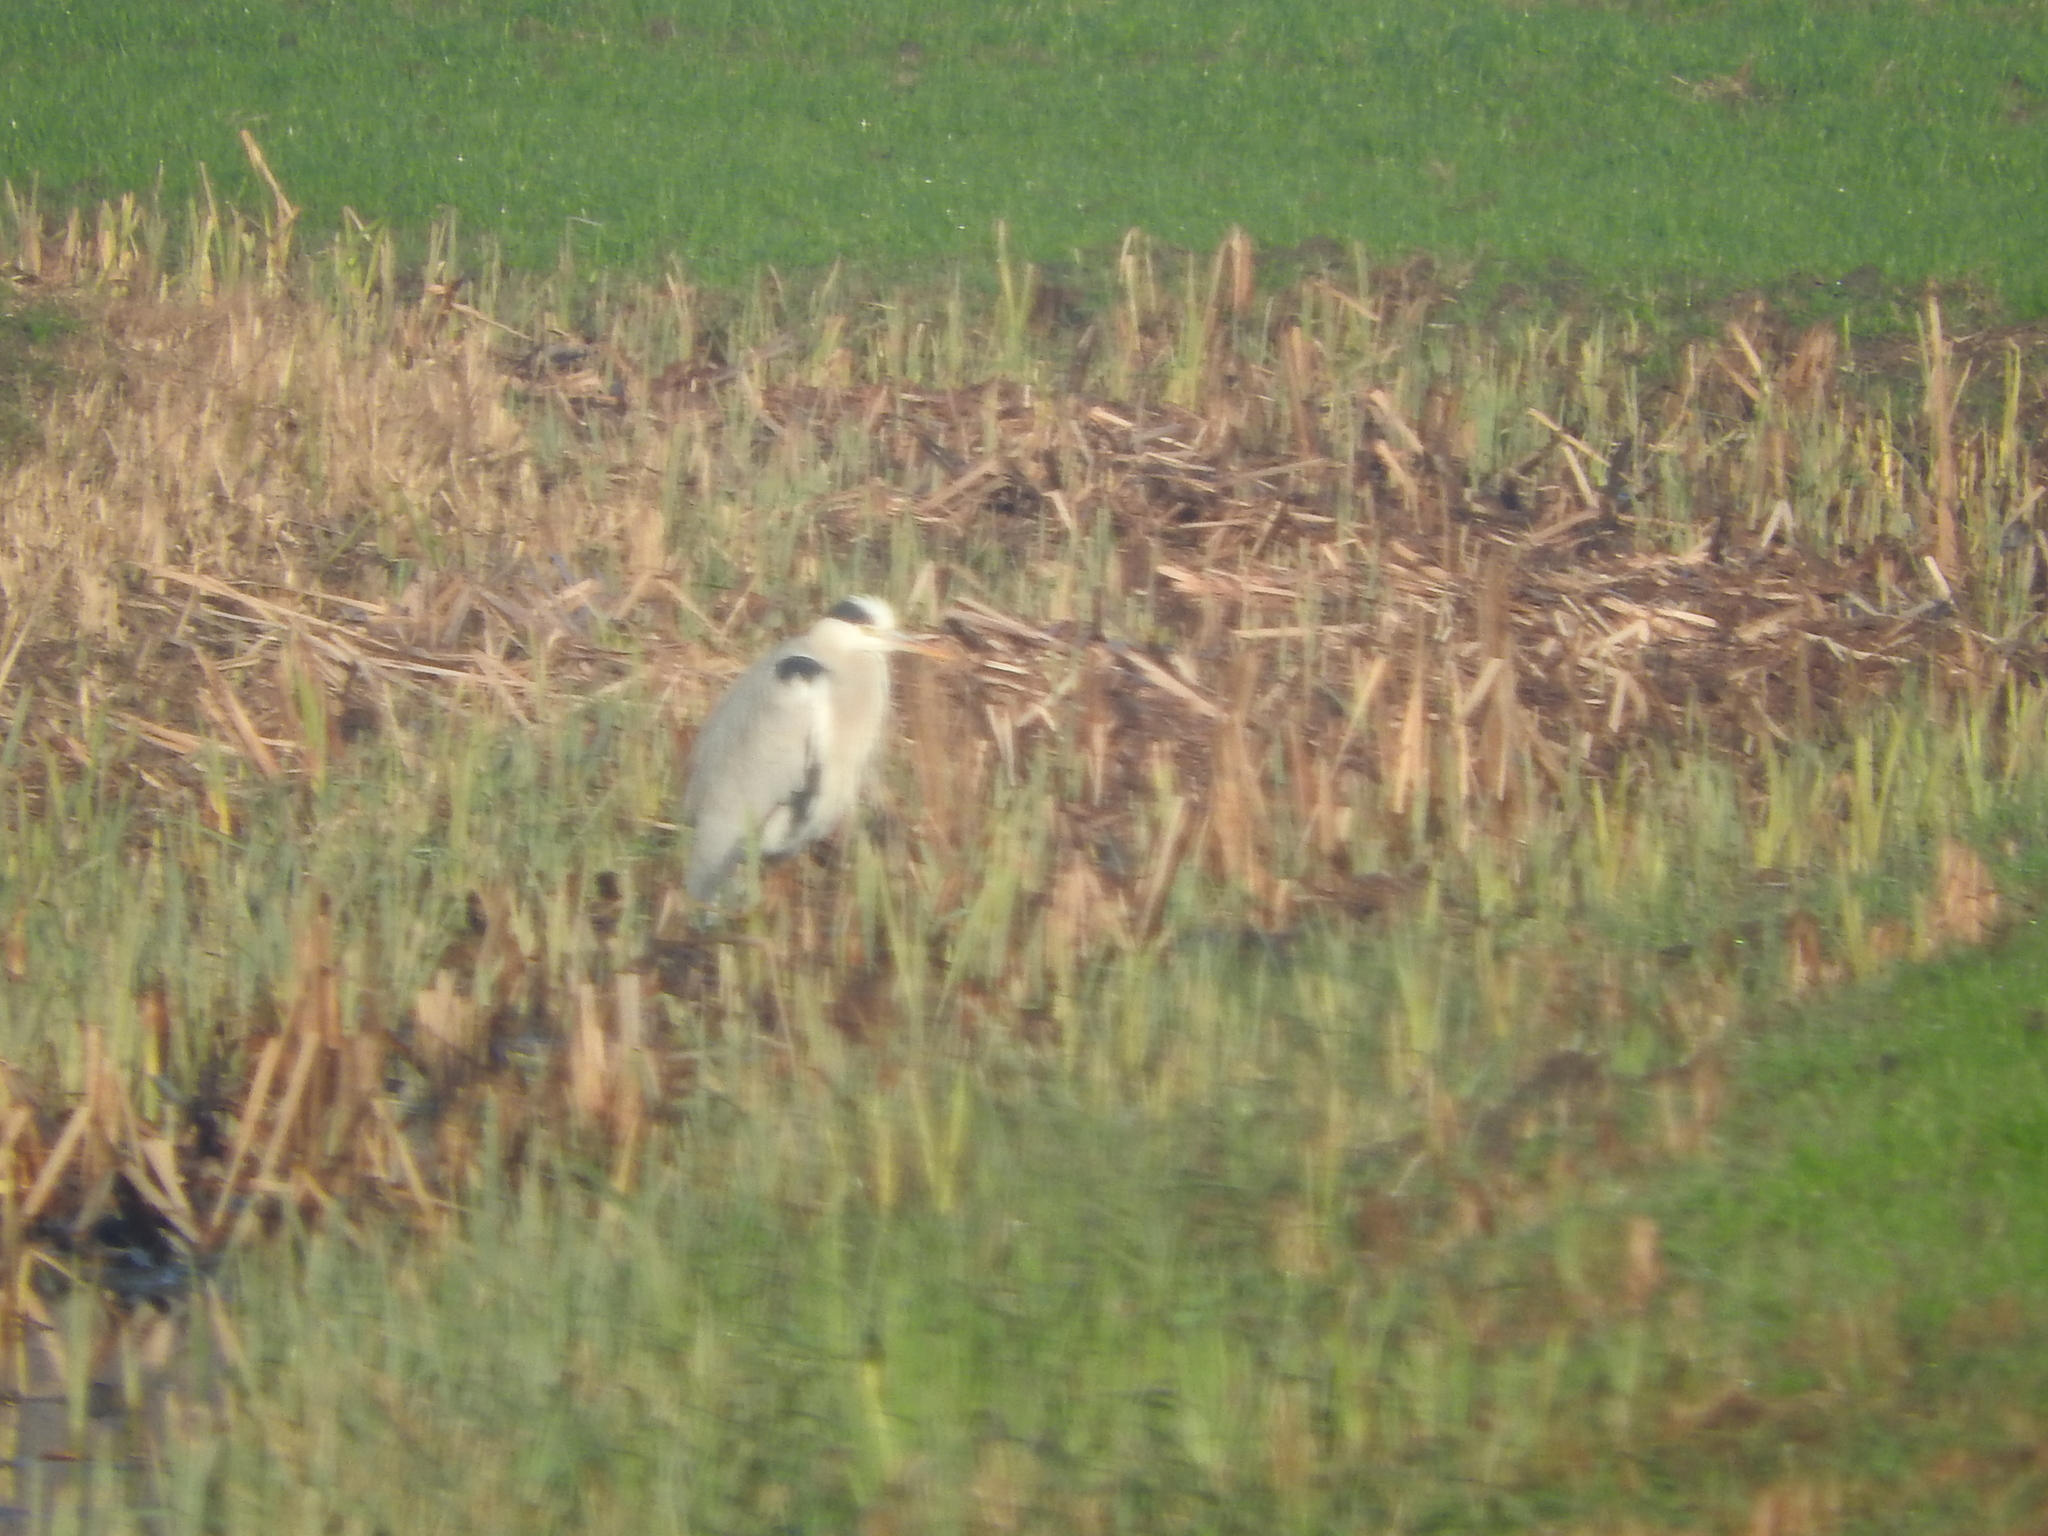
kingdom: Animalia
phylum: Chordata
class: Aves
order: Pelecaniformes
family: Ardeidae
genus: Ardea
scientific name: Ardea cinerea
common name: Grey heron
